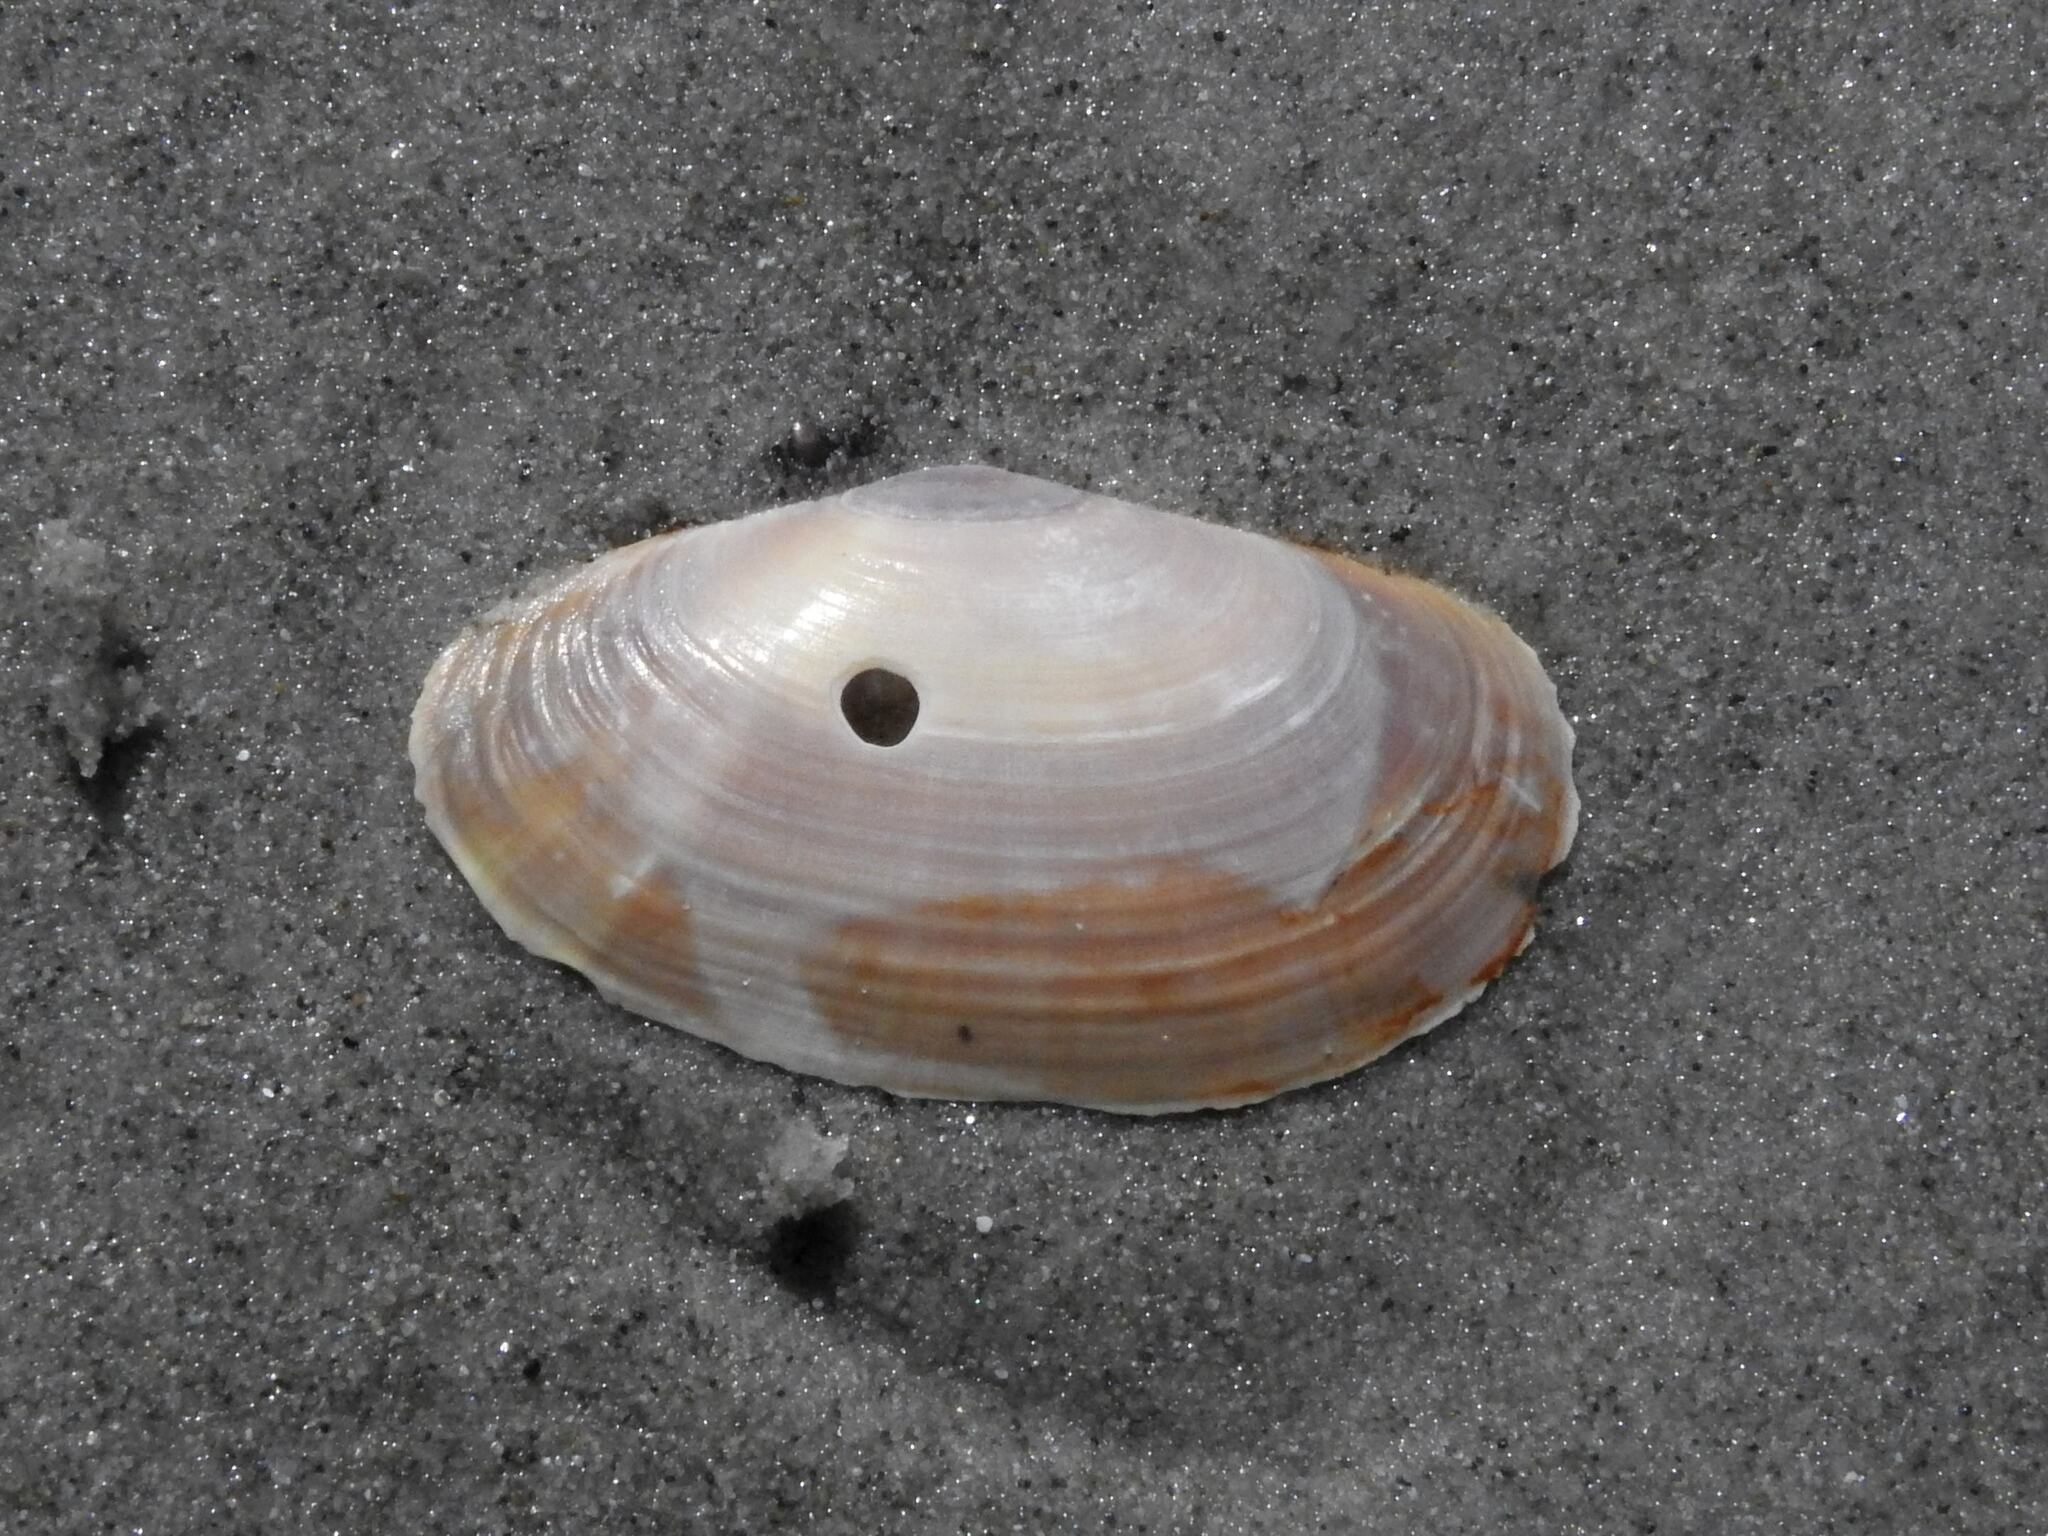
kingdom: Animalia
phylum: Mollusca
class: Bivalvia
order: Cardiida
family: Psammobiidae
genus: Hiatula
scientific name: Hiatula biradiata
